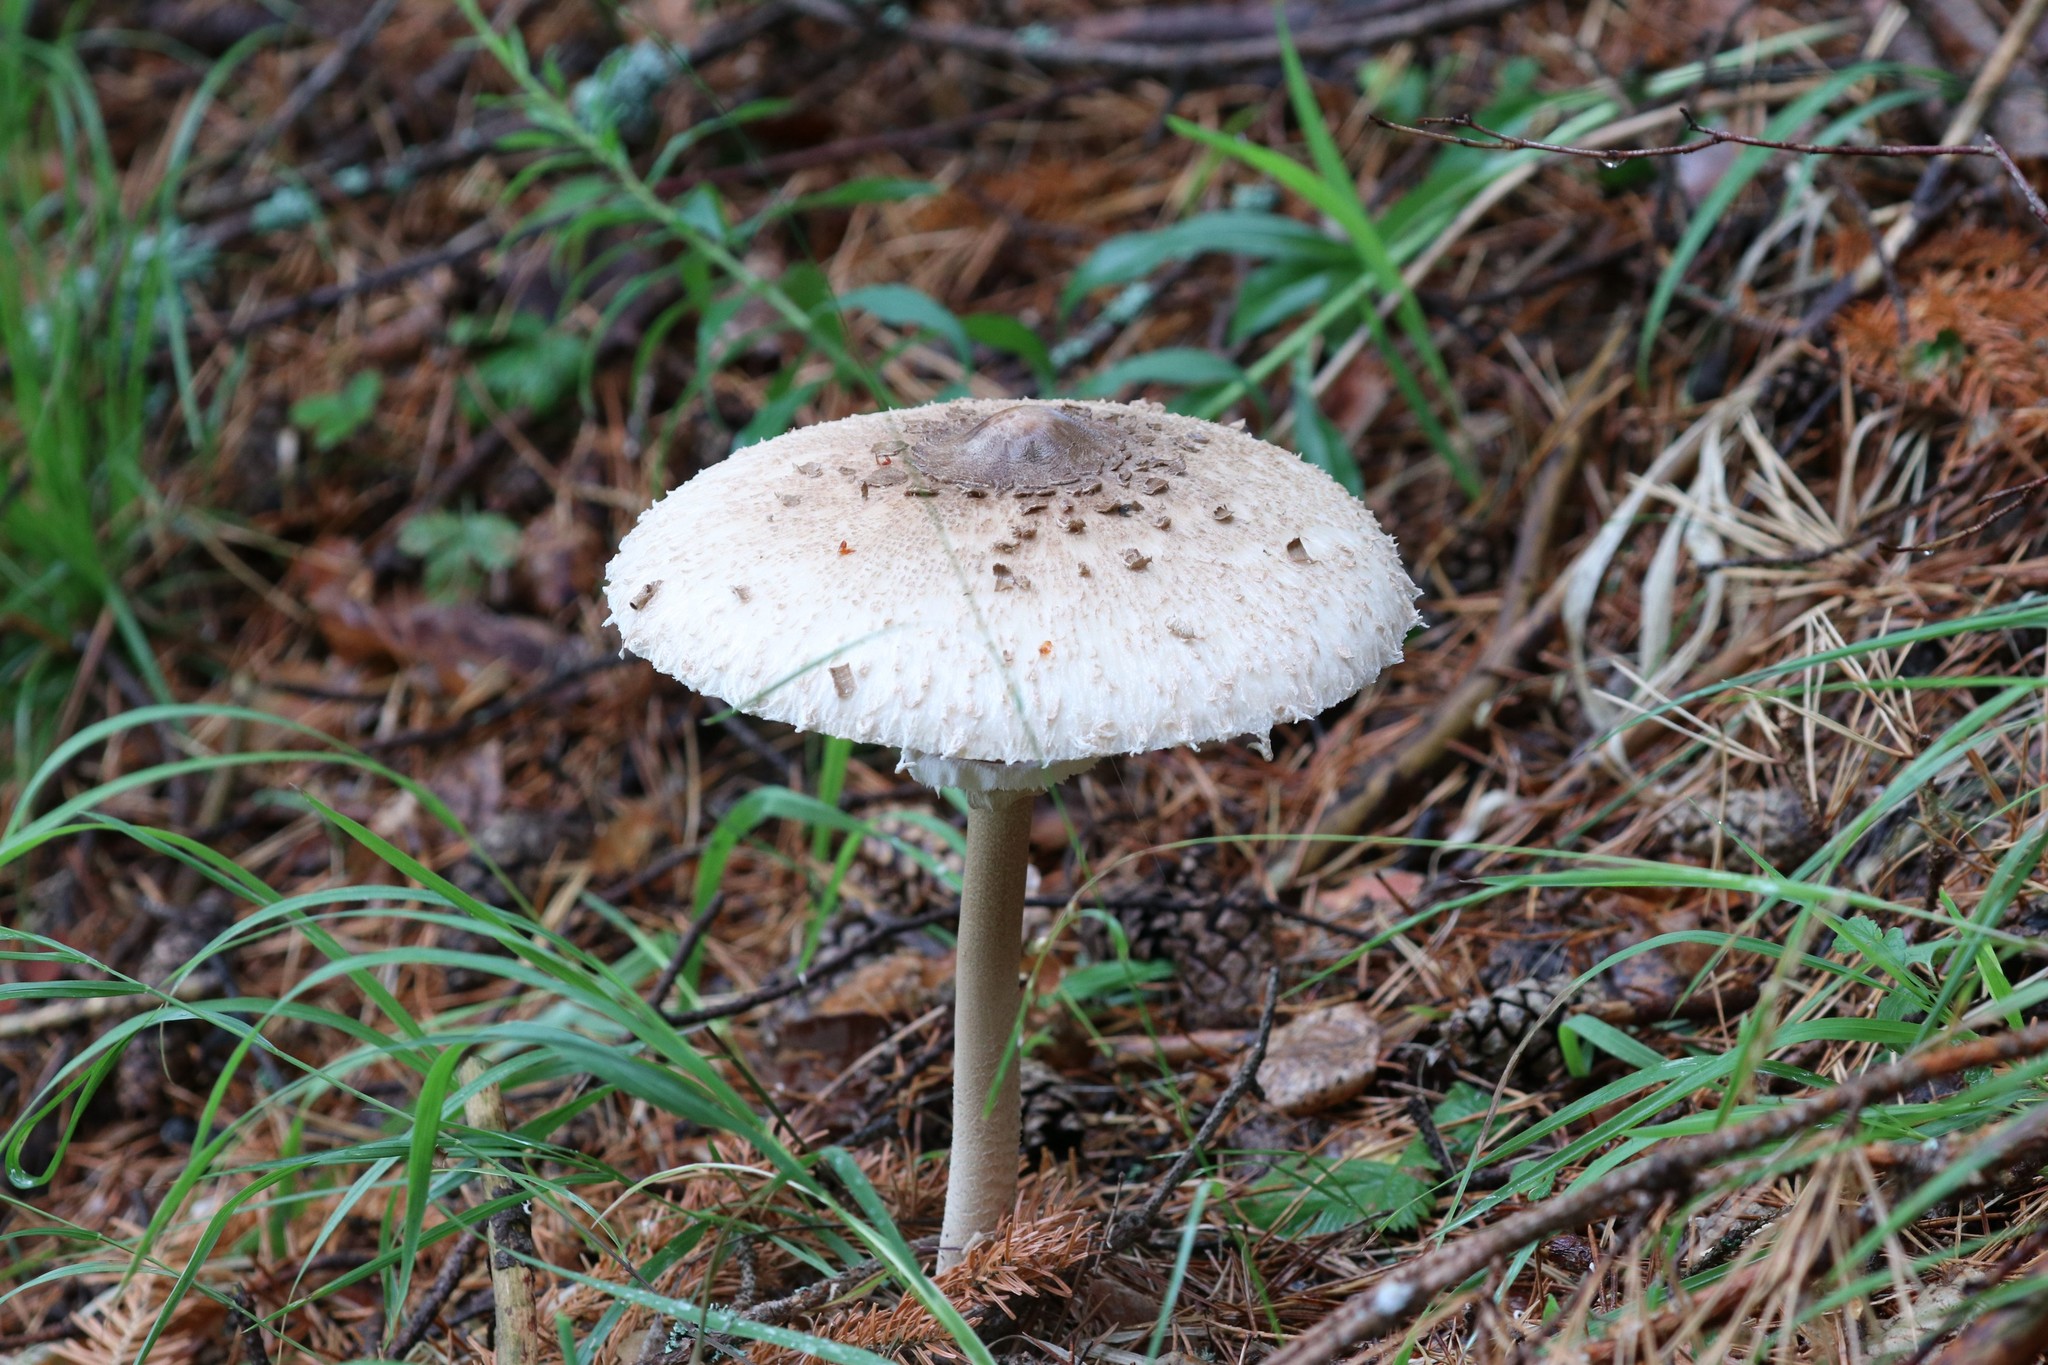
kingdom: Fungi
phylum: Basidiomycota
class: Agaricomycetes
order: Agaricales
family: Agaricaceae
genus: Macrolepiota
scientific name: Macrolepiota procera
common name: Parasol
